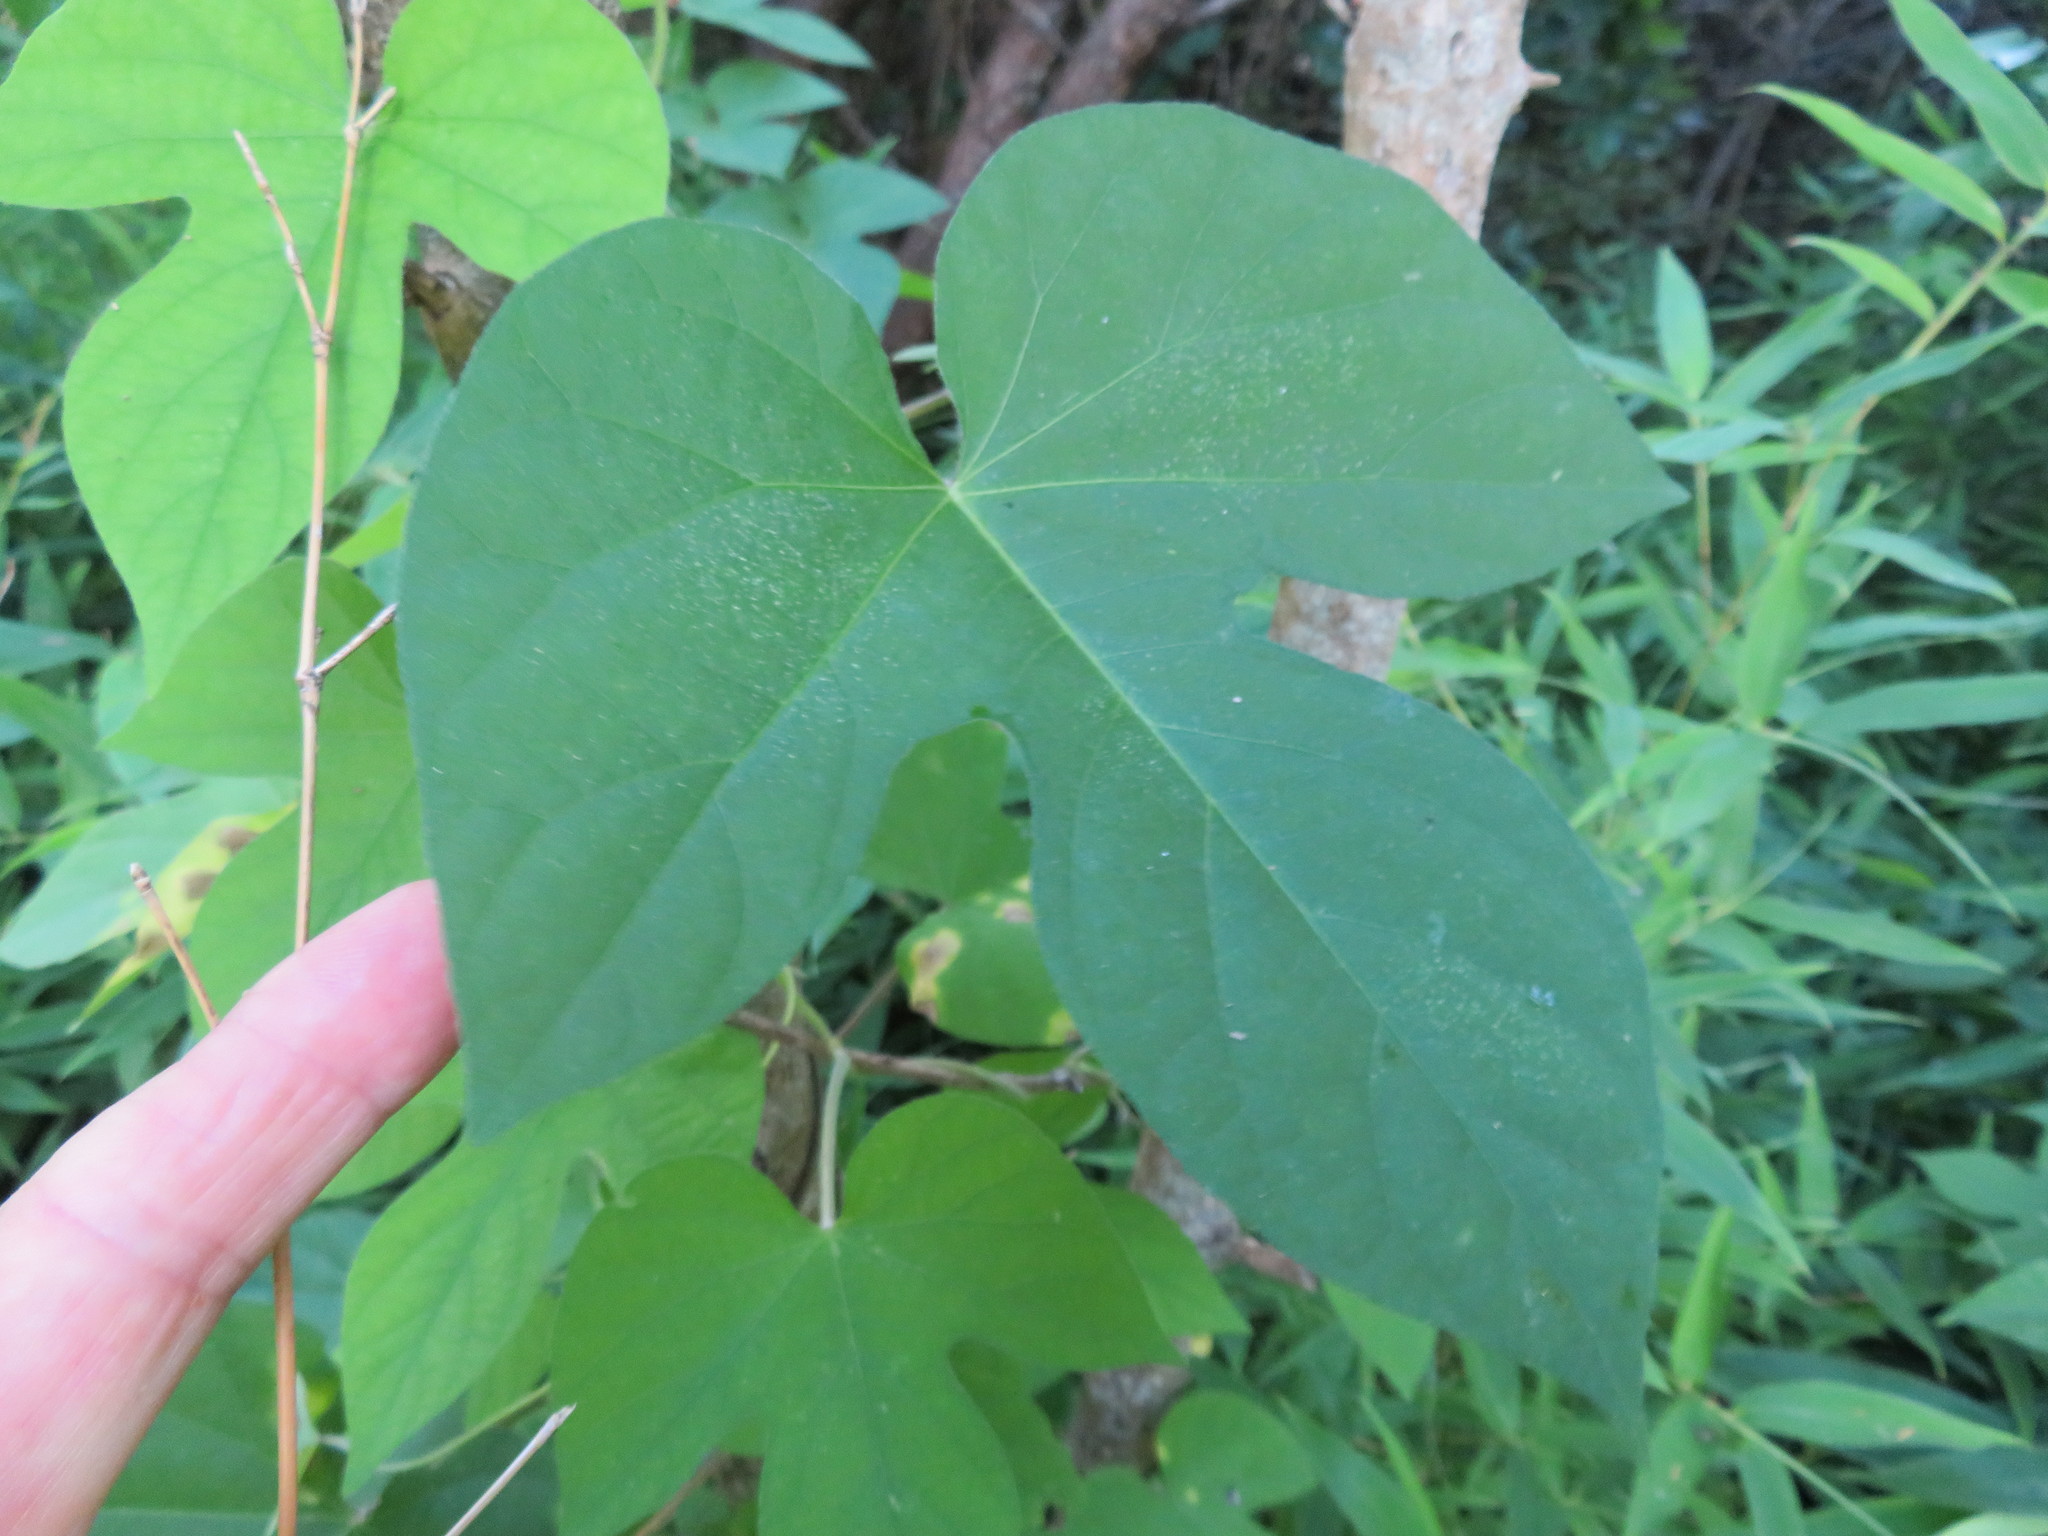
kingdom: Plantae
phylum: Tracheophyta
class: Magnoliopsida
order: Solanales
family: Convolvulaceae
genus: Ipomoea
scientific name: Ipomoea indica
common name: Blue dawnflower
